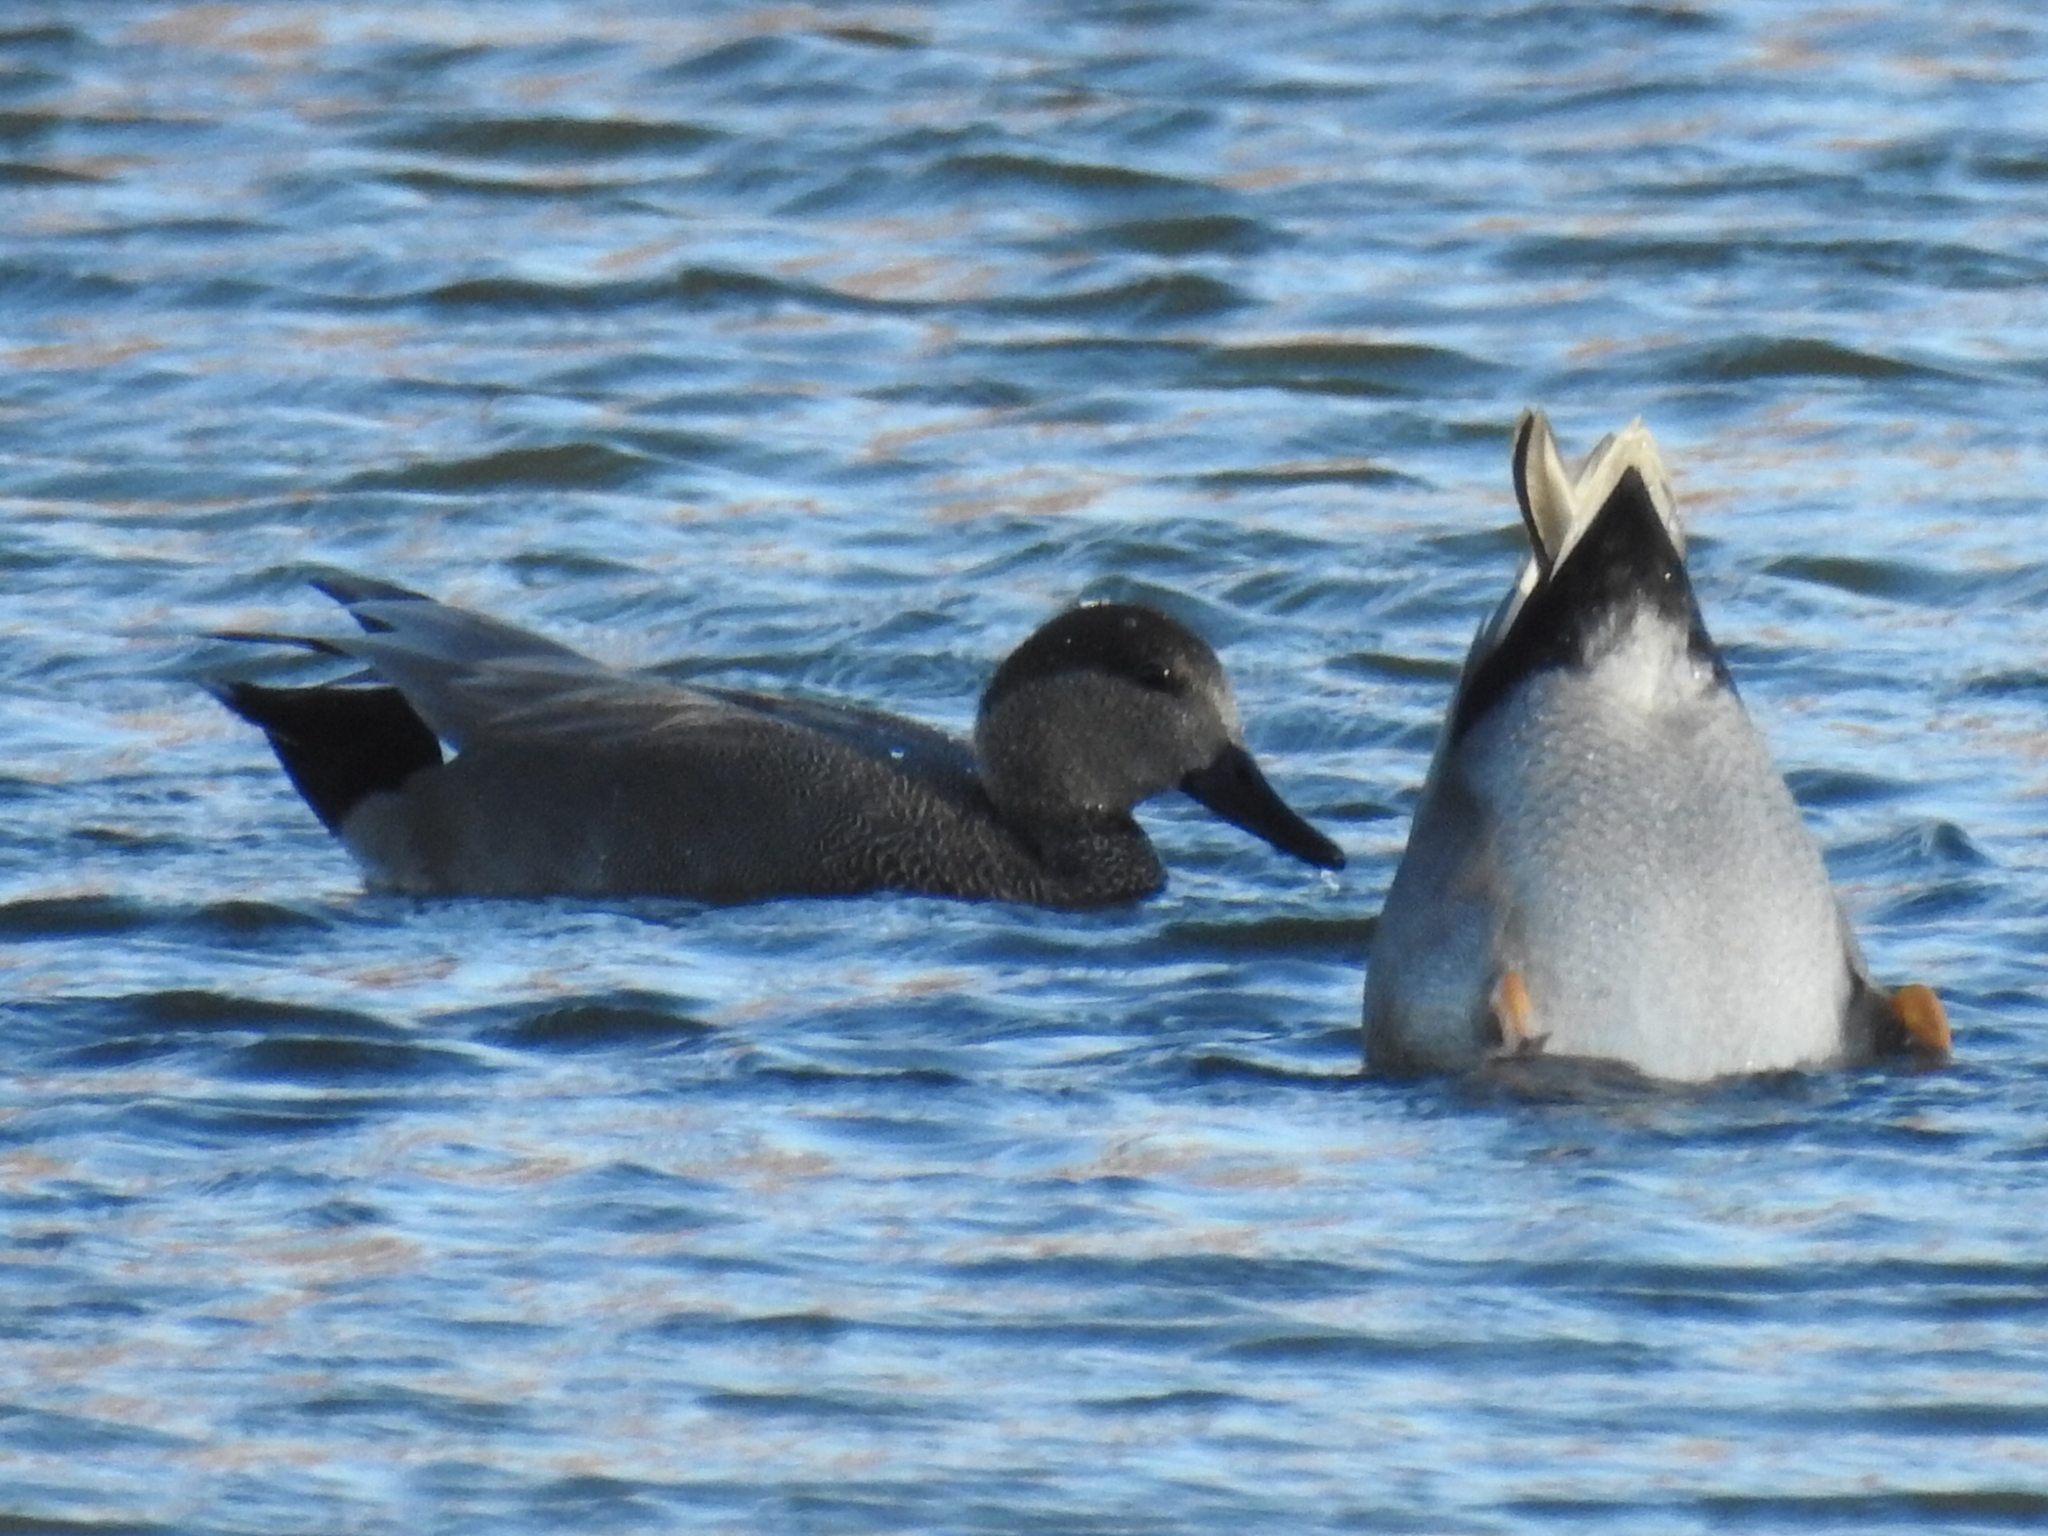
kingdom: Animalia
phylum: Chordata
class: Aves
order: Anseriformes
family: Anatidae
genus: Mareca
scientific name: Mareca strepera
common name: Gadwall
